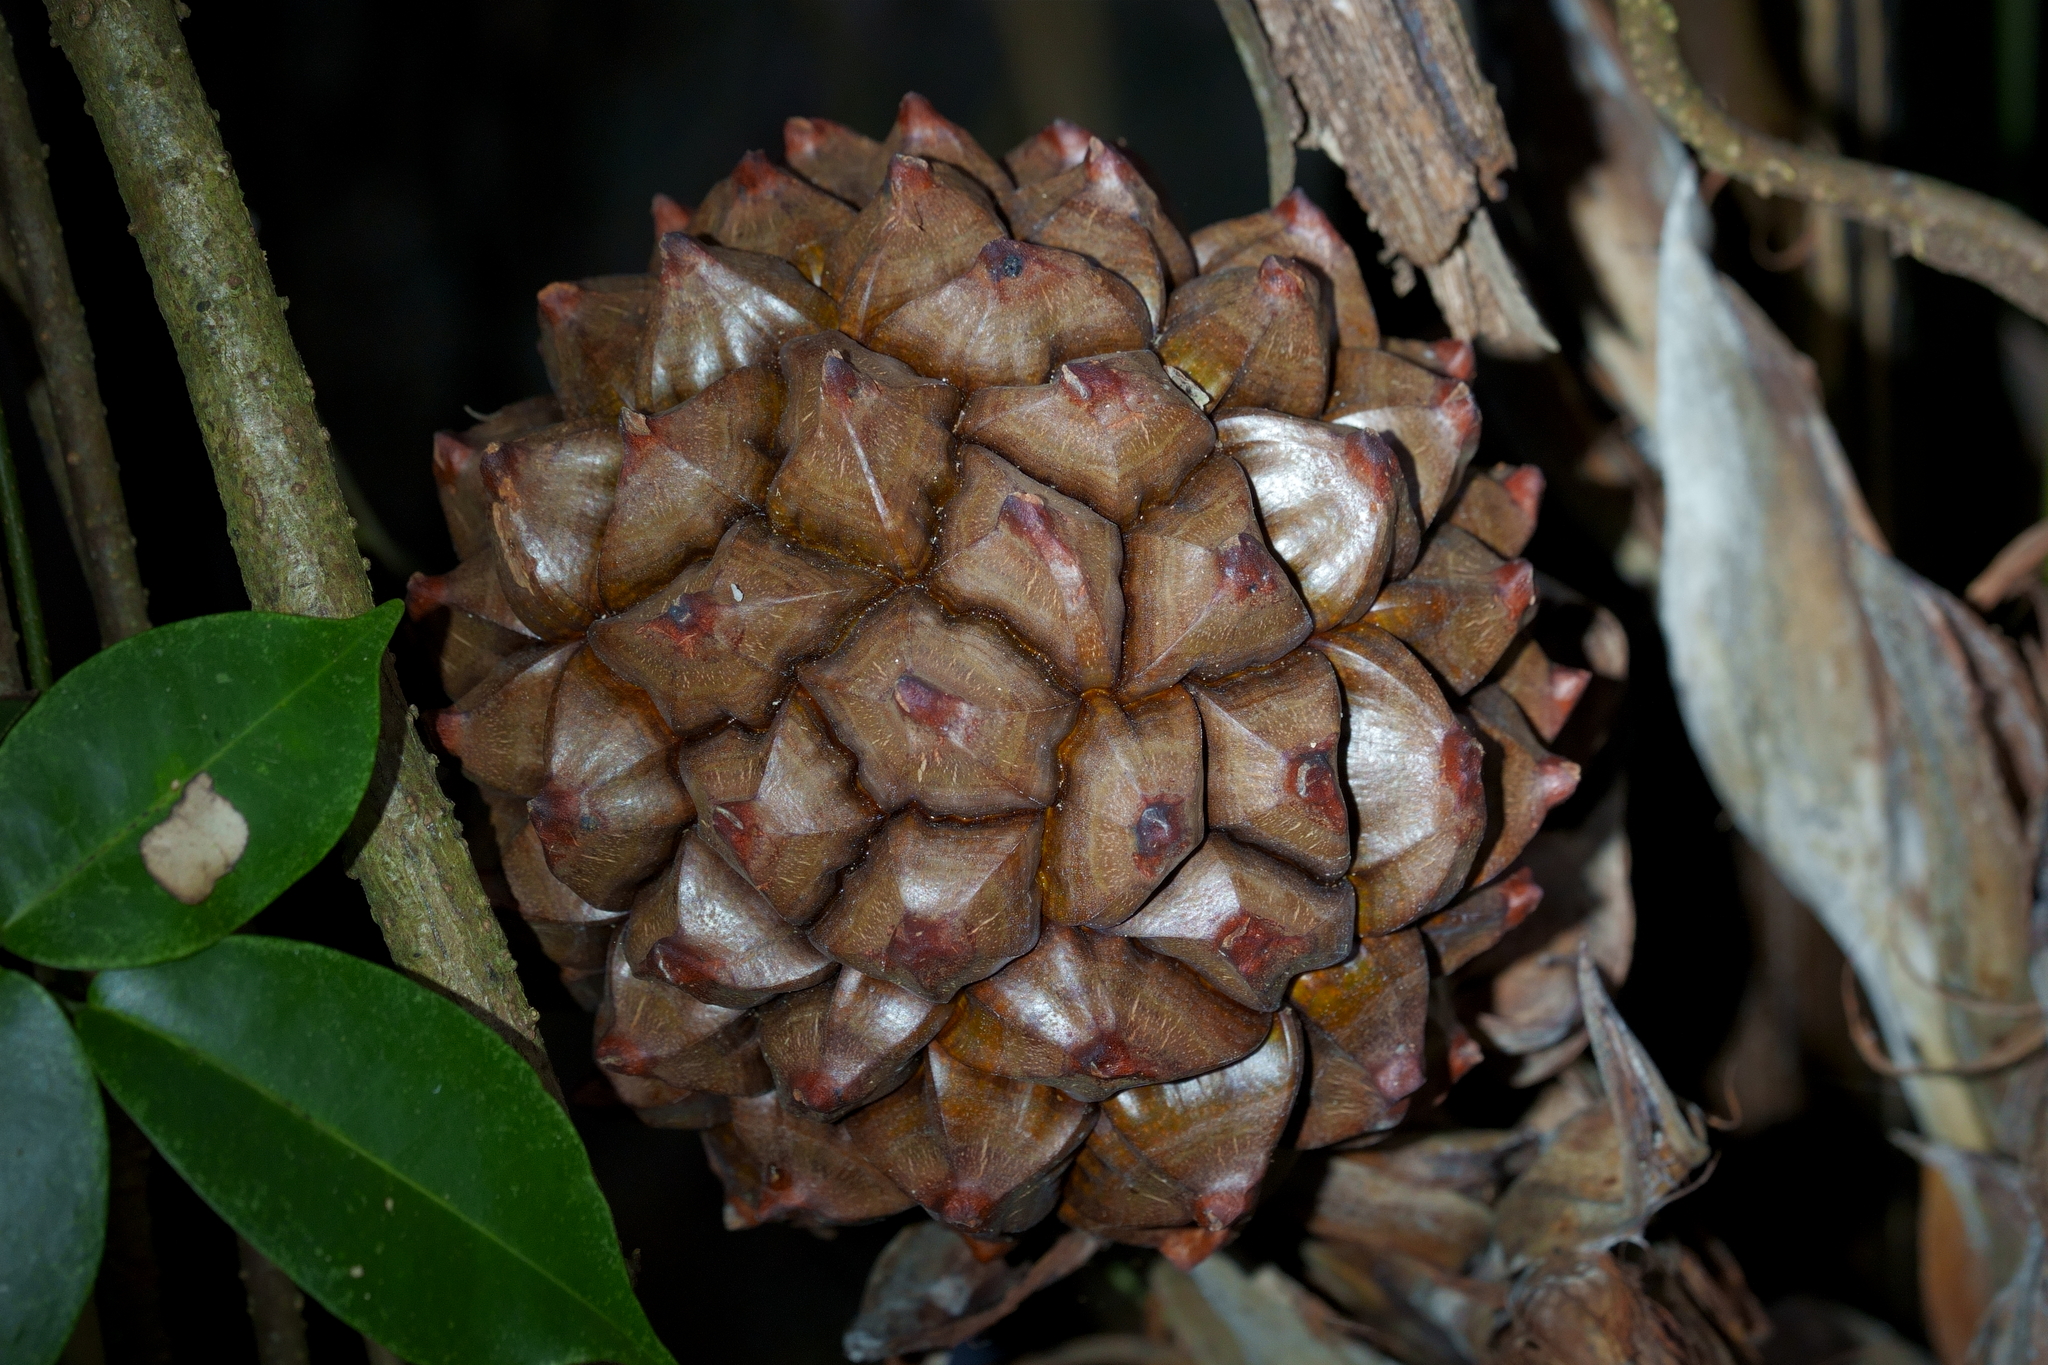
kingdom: Plantae
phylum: Tracheophyta
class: Liliopsida
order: Arecales
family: Arecaceae
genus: Nypa
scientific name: Nypa fruticans
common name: Mangrove palm
